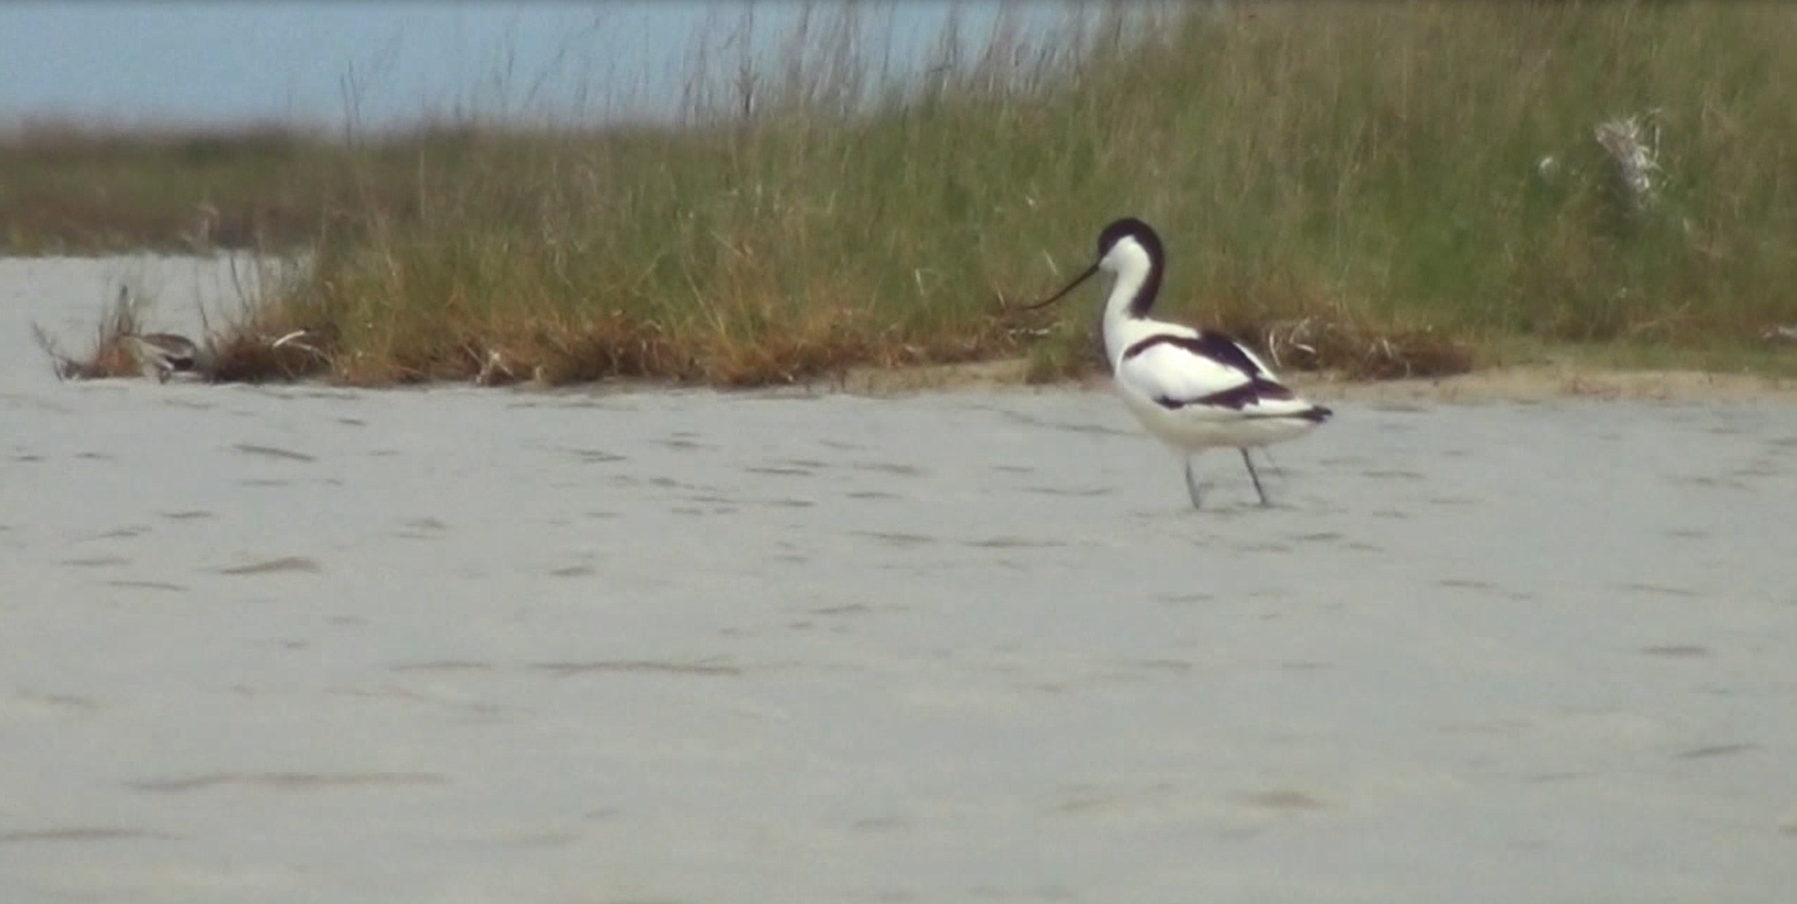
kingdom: Animalia
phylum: Chordata
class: Aves
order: Charadriiformes
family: Recurvirostridae
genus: Recurvirostra
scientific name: Recurvirostra avosetta
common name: Pied avocet
